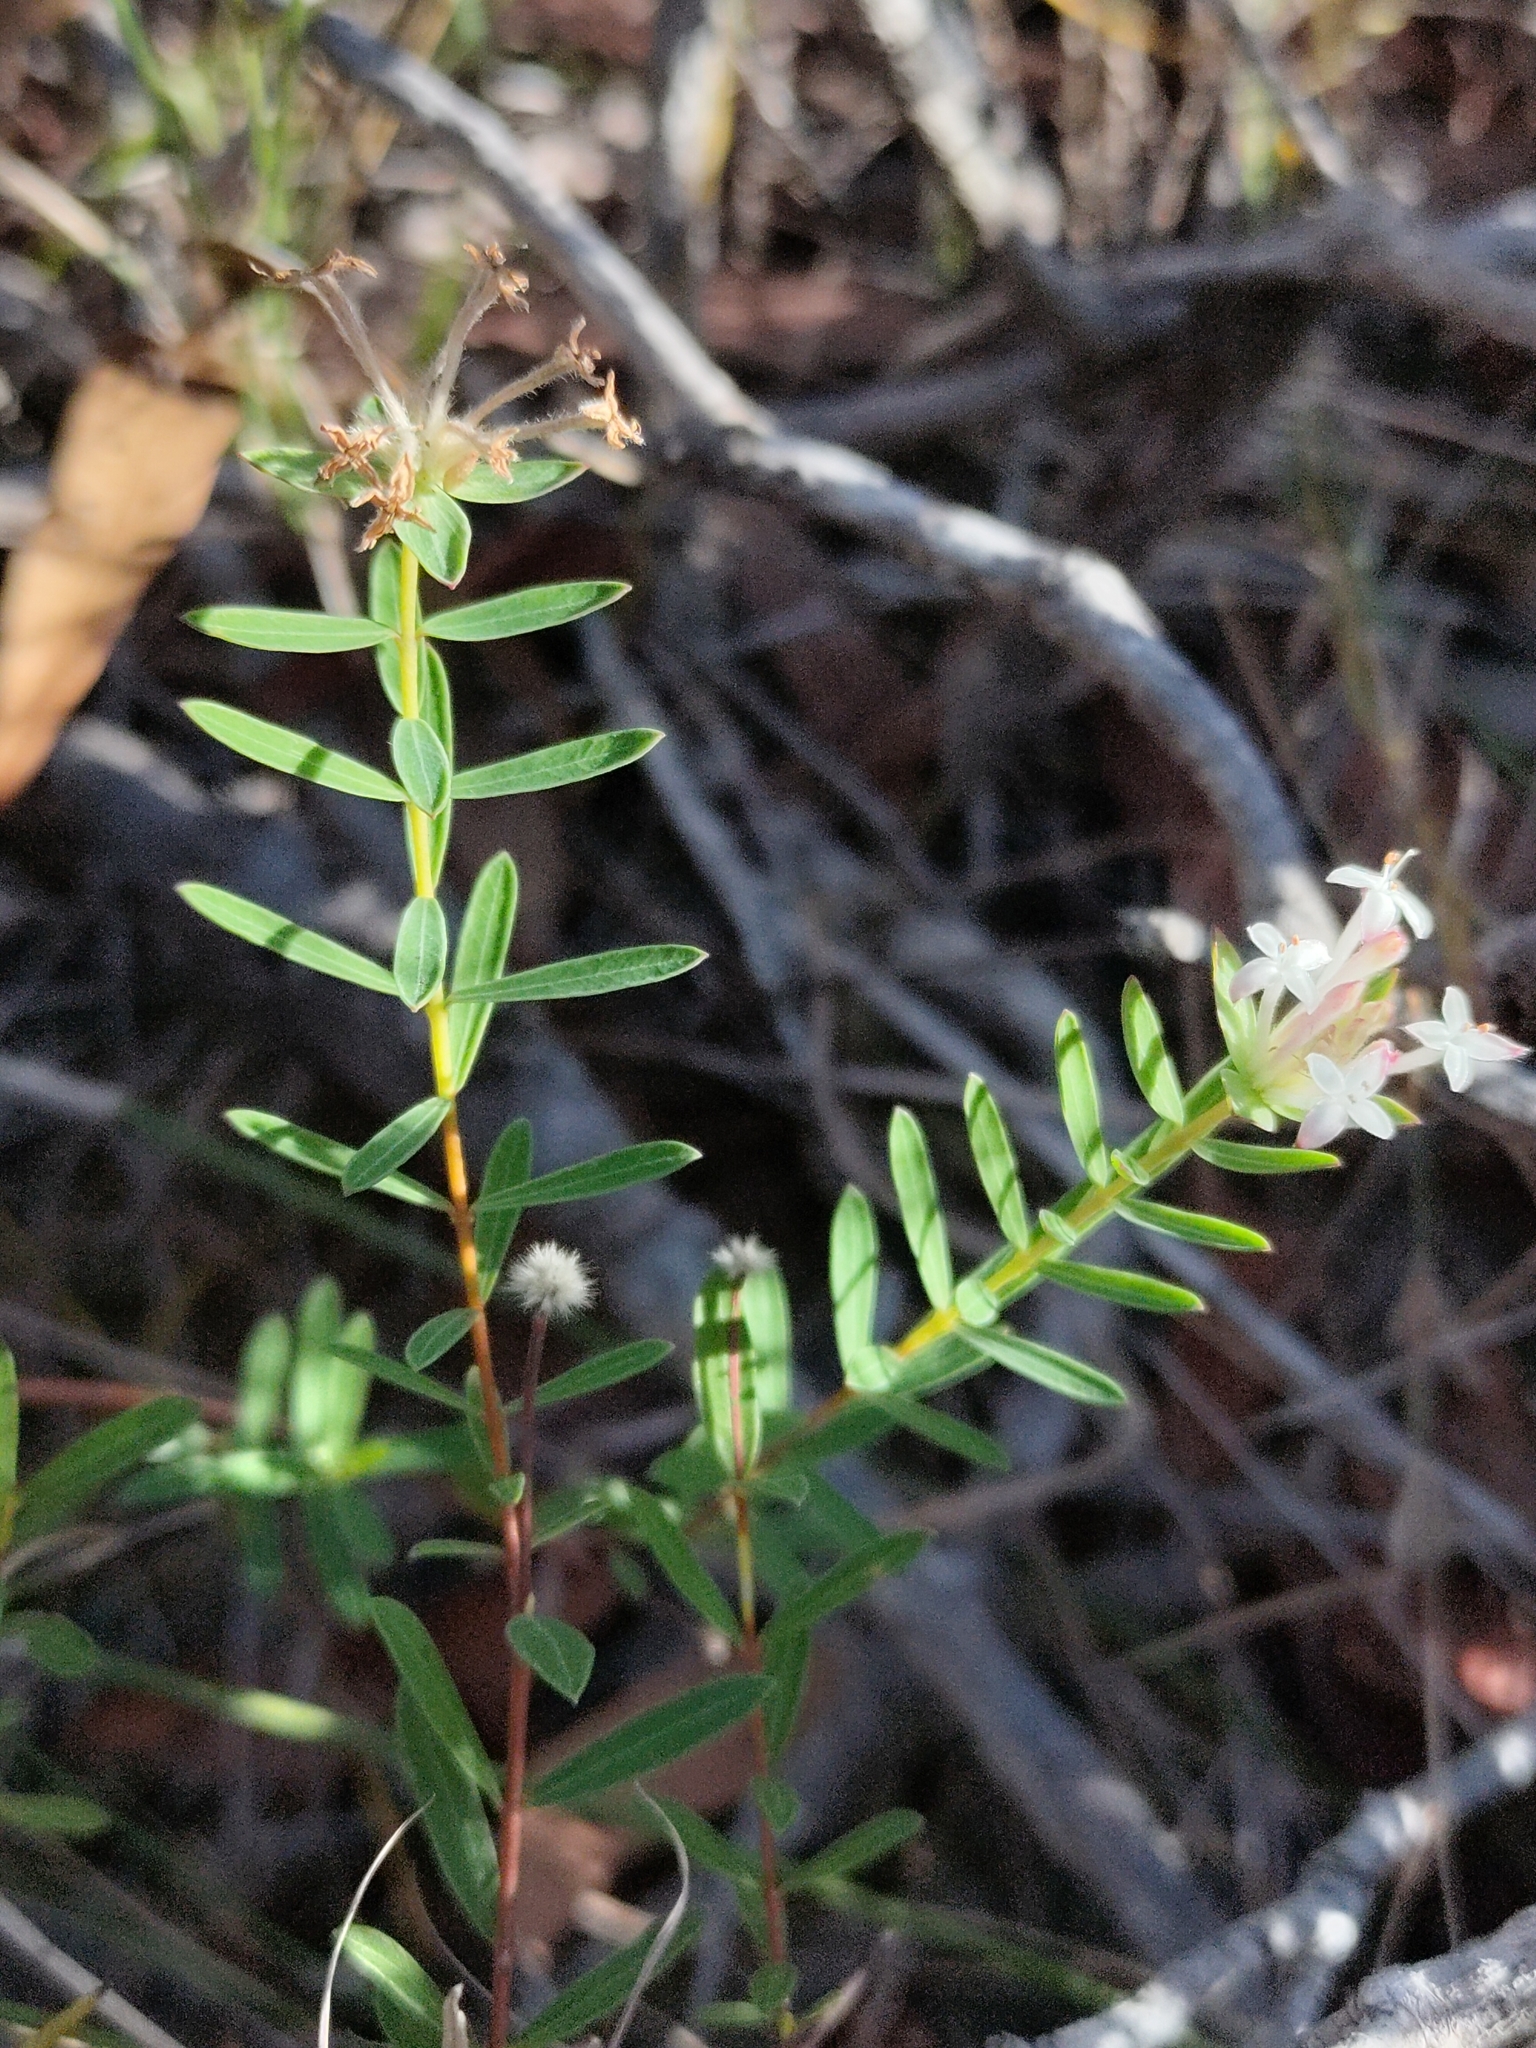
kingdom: Plantae
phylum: Tracheophyta
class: Magnoliopsida
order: Malvales
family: Thymelaeaceae
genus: Pimelea
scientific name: Pimelea linifolia
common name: Queen-of-the-bush
